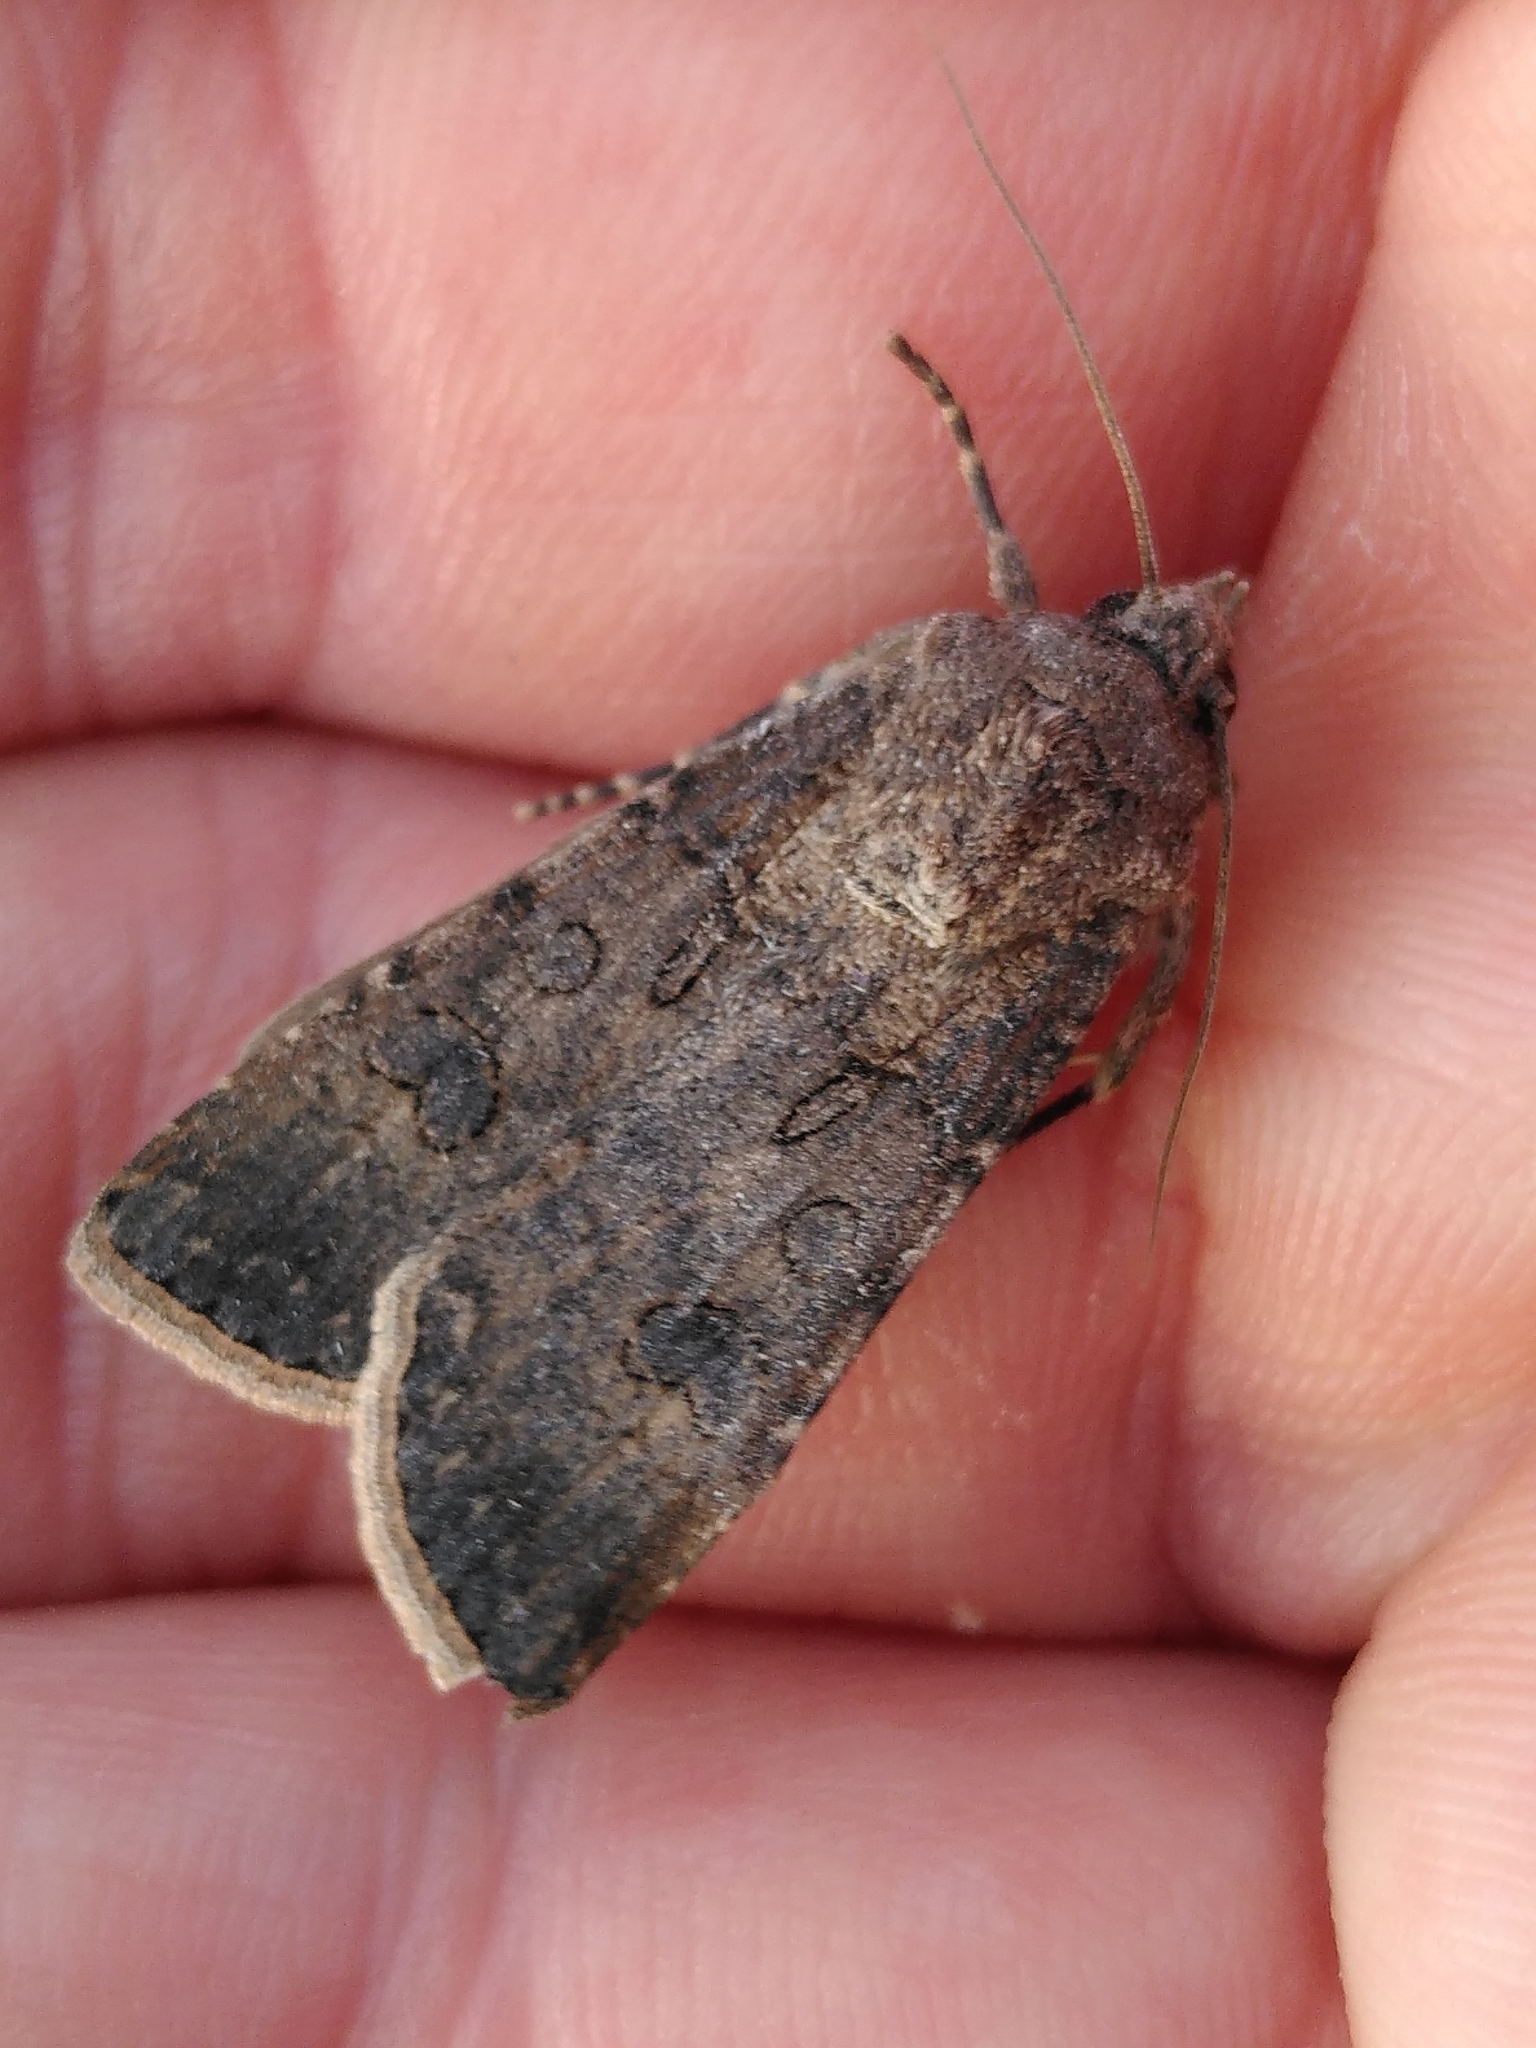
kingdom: Animalia
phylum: Arthropoda
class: Insecta
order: Lepidoptera
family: Noctuidae
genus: Agrotis
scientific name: Agrotis segetum
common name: Turnip moth
